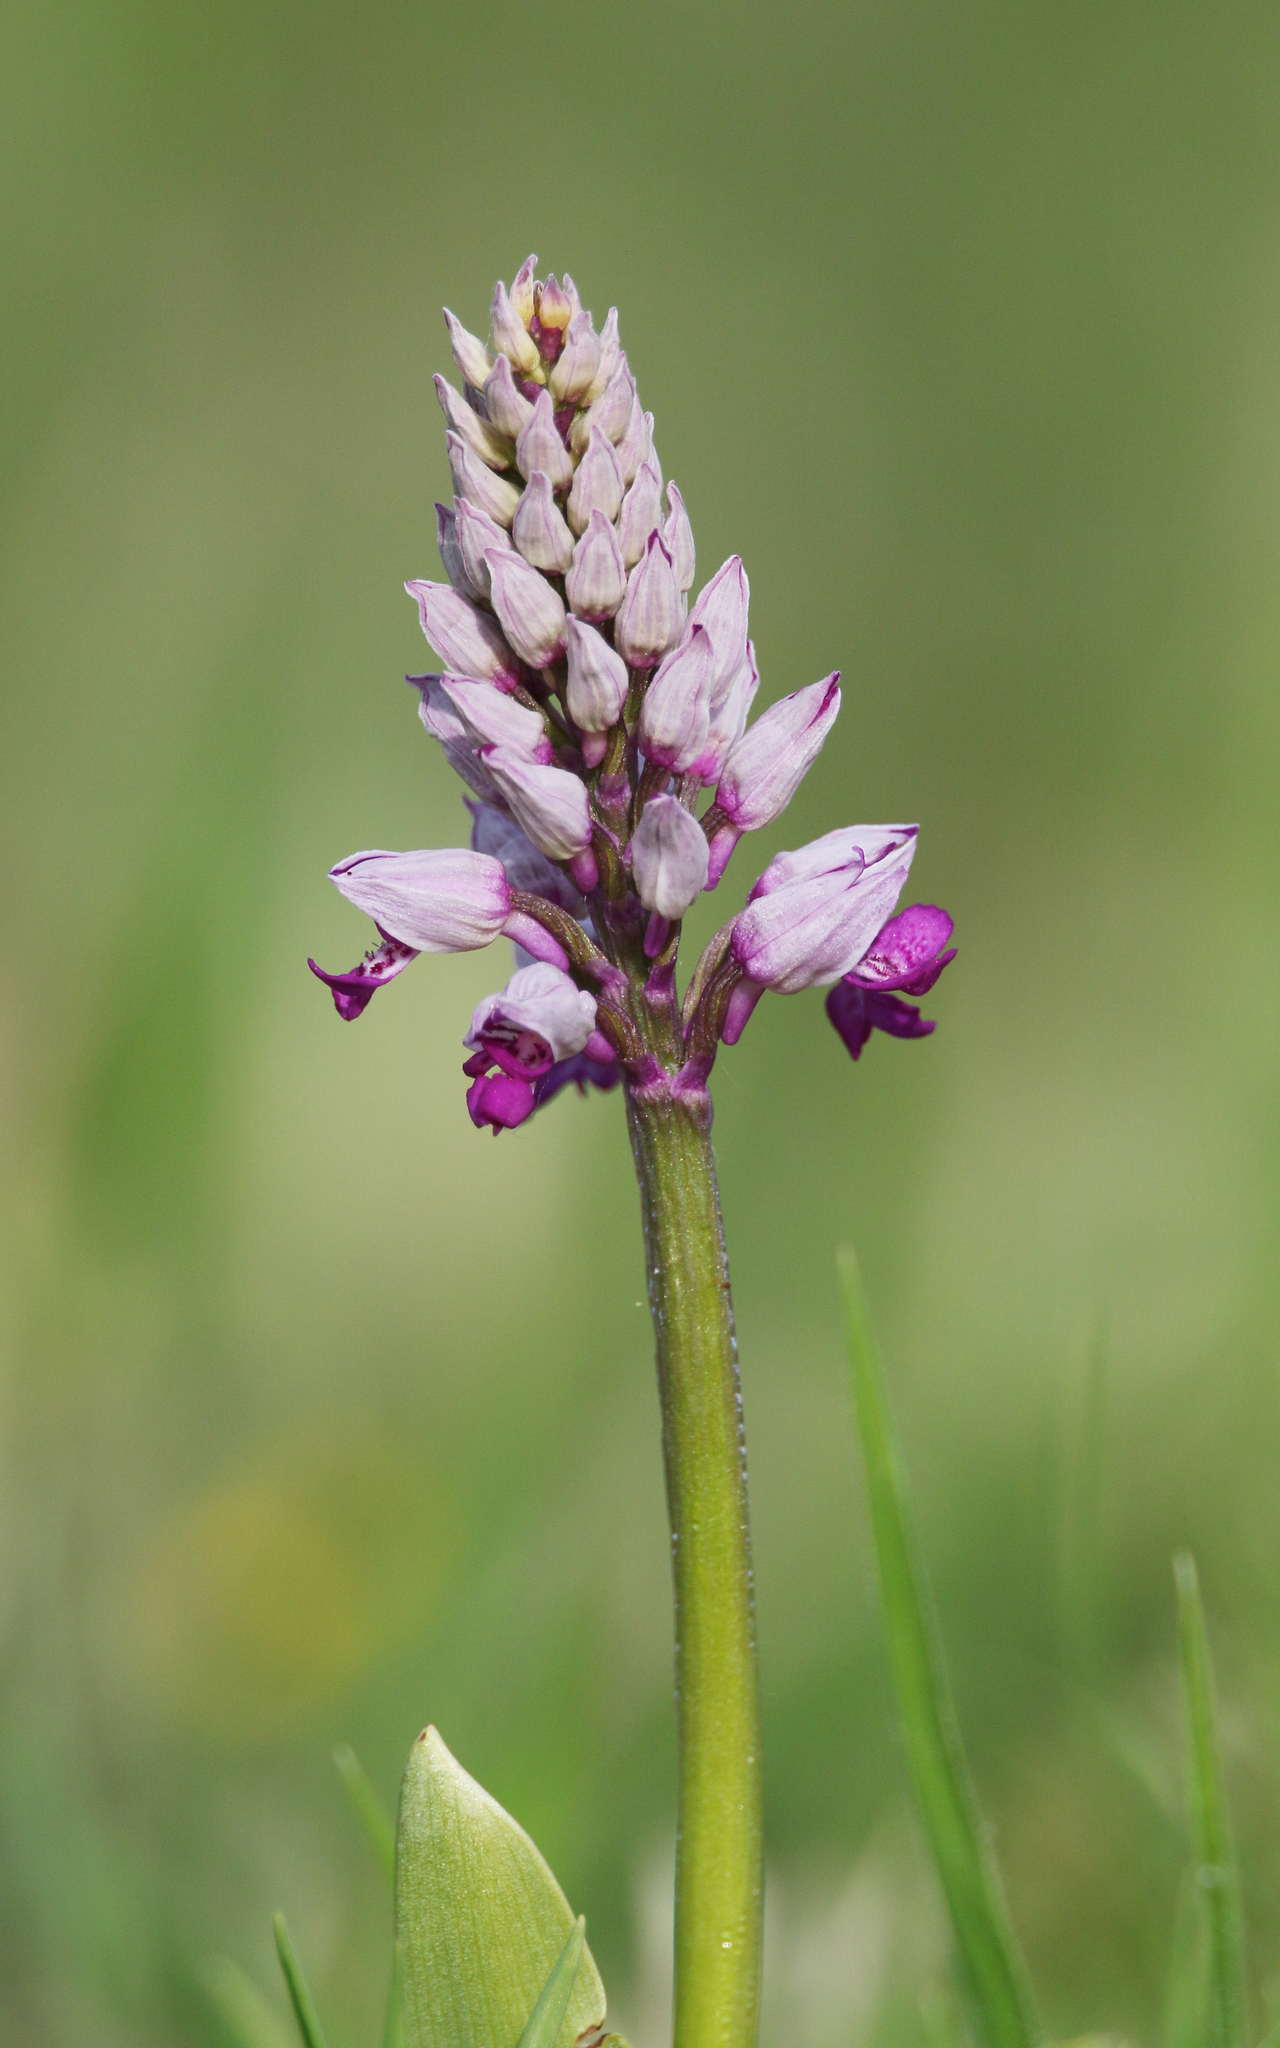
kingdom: Plantae
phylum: Tracheophyta
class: Liliopsida
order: Asparagales
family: Orchidaceae
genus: Orchis
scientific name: Orchis militaris
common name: Military orchid
